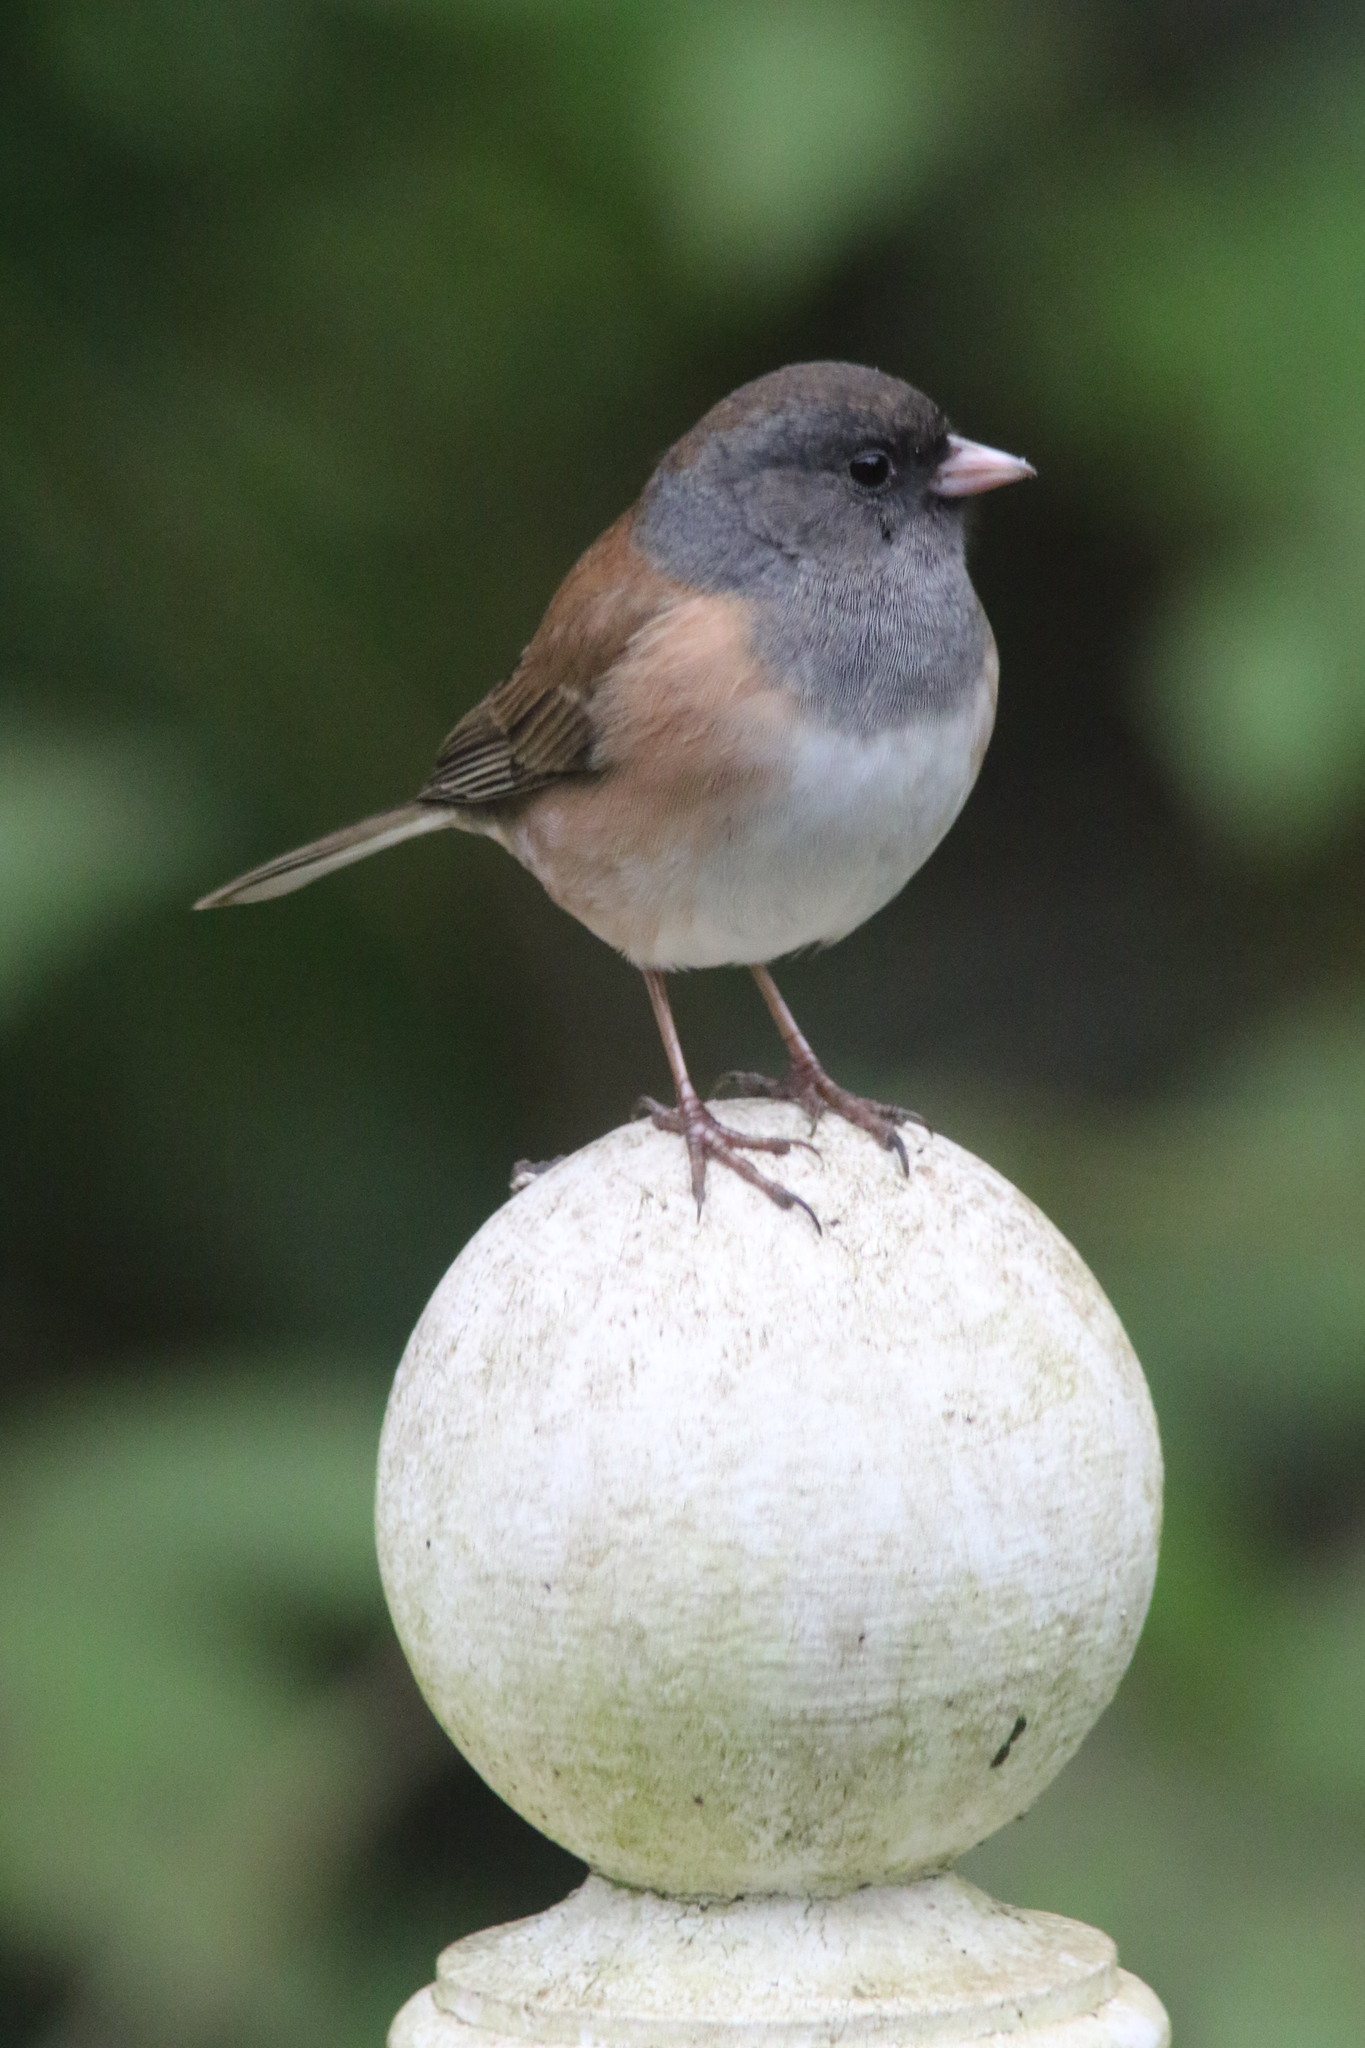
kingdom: Animalia
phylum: Chordata
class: Aves
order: Passeriformes
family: Passerellidae
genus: Junco
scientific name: Junco hyemalis
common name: Dark-eyed junco
